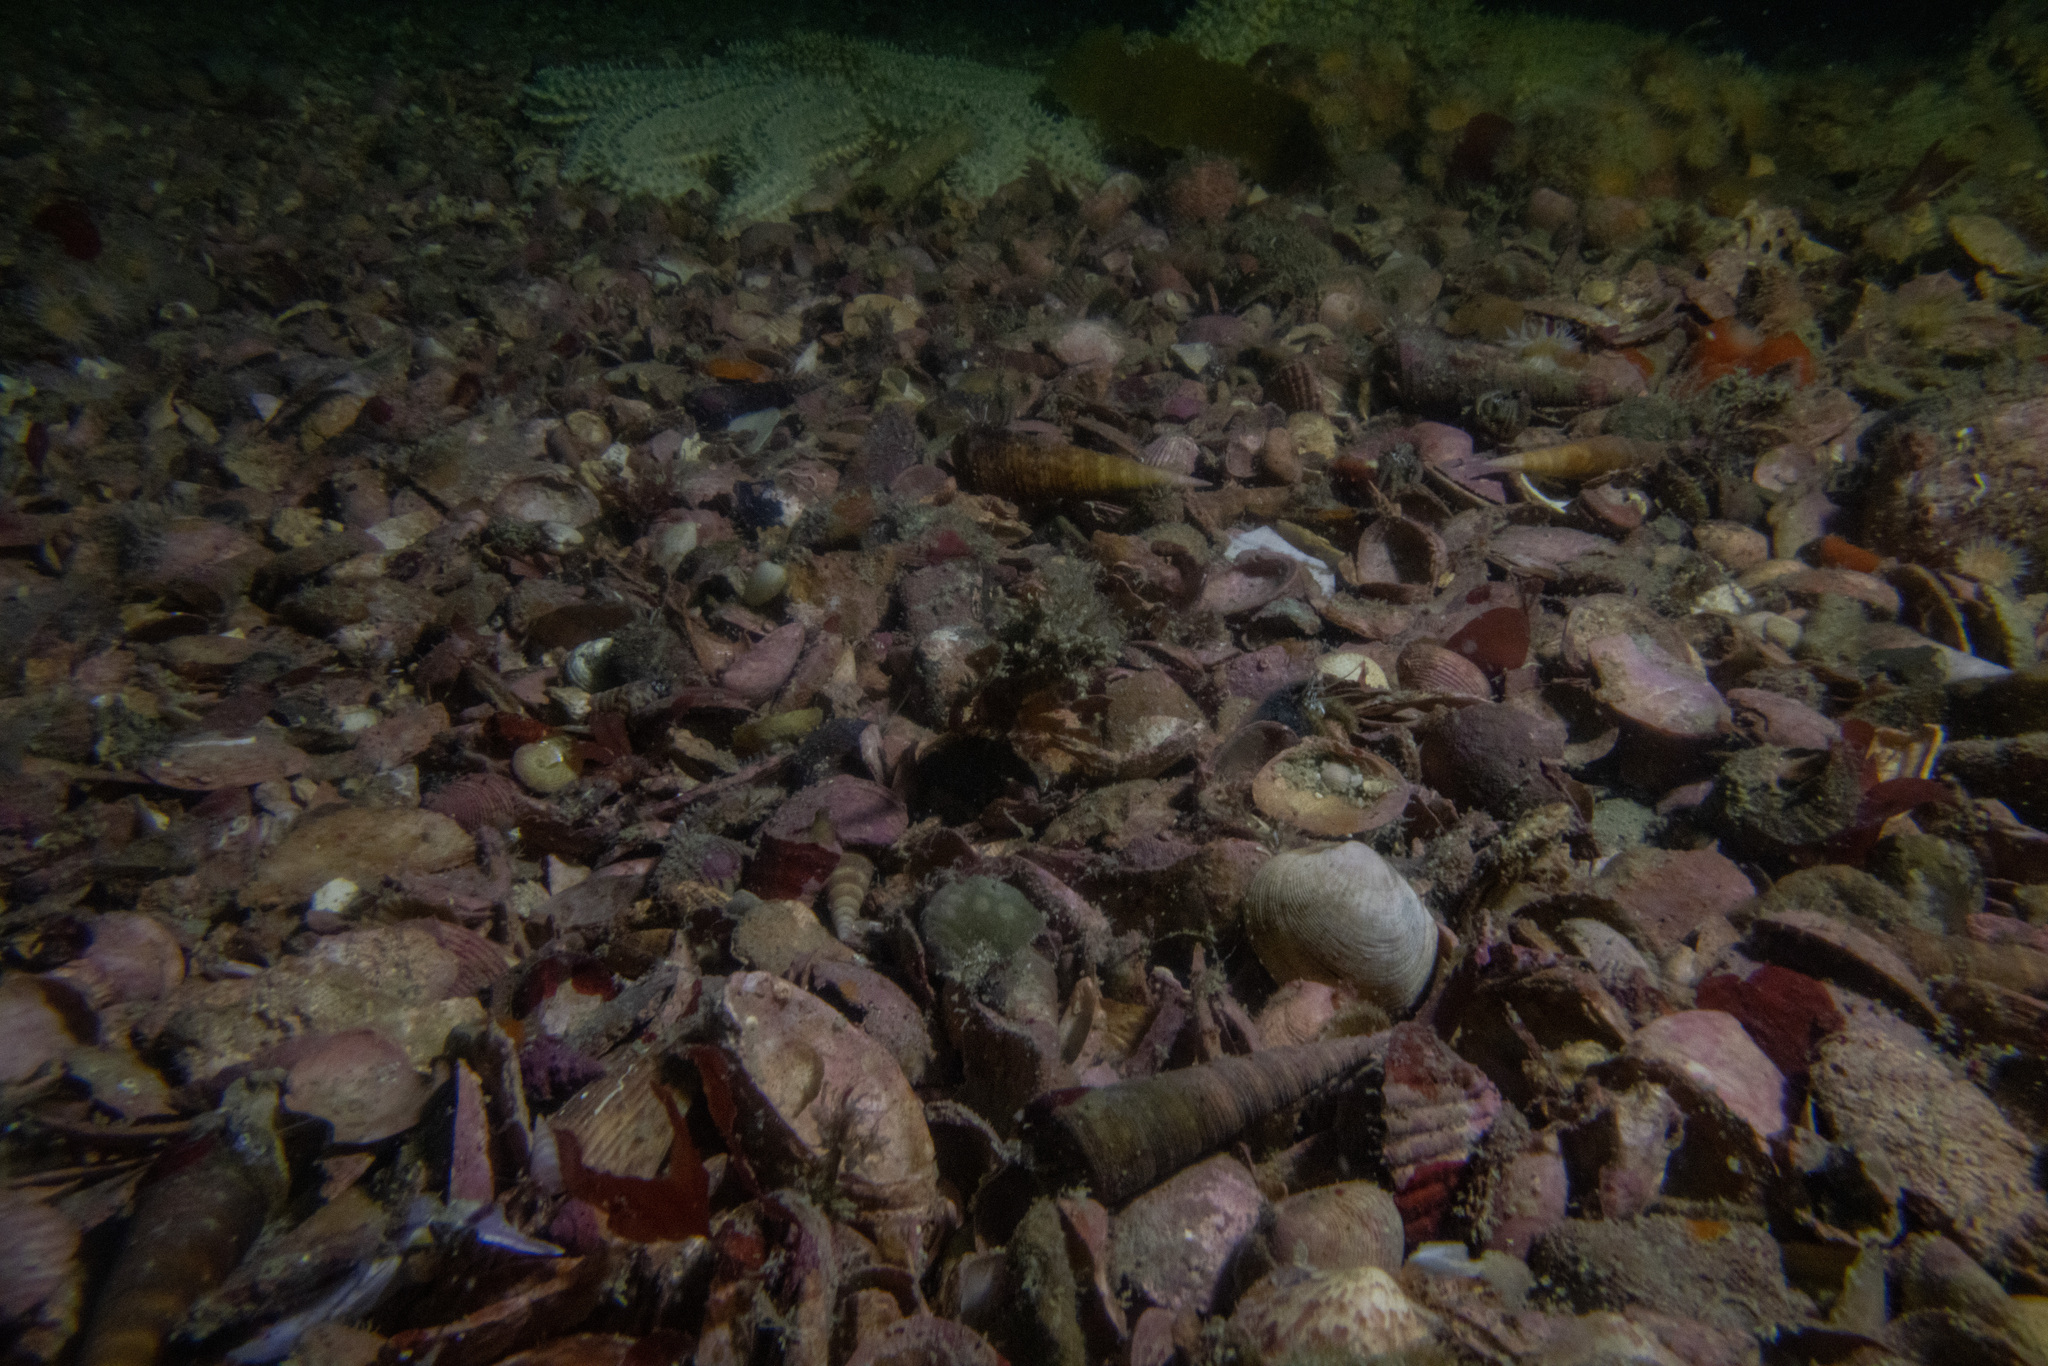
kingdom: Animalia
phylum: Mollusca
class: Gastropoda
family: Turritellidae
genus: Maoricolpus
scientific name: Maoricolpus roseus
